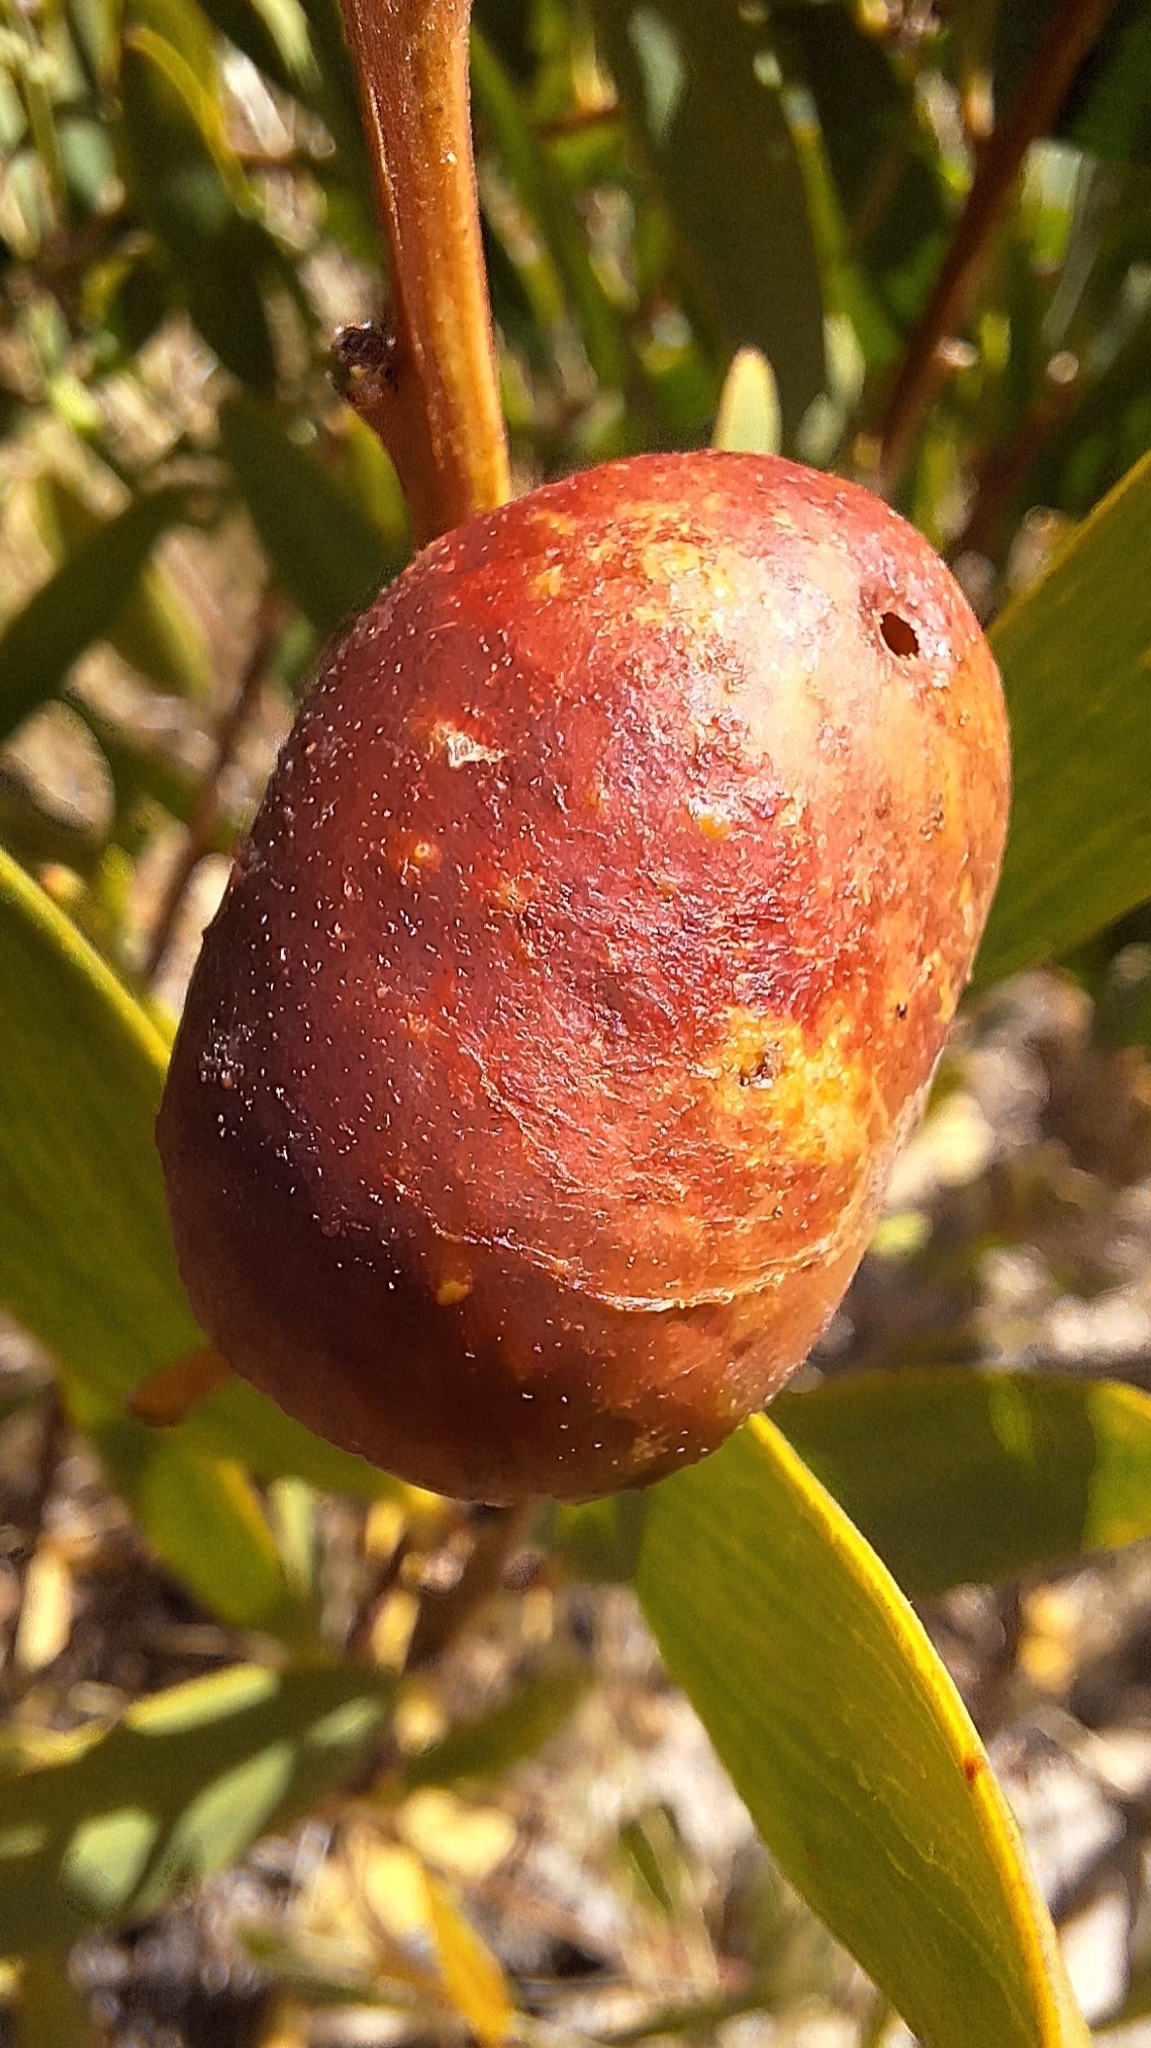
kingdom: Animalia
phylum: Arthropoda
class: Insecta
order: Hymenoptera
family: Pteromalidae
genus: Trichilogaster
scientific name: Trichilogaster acaciaelongifoliae
